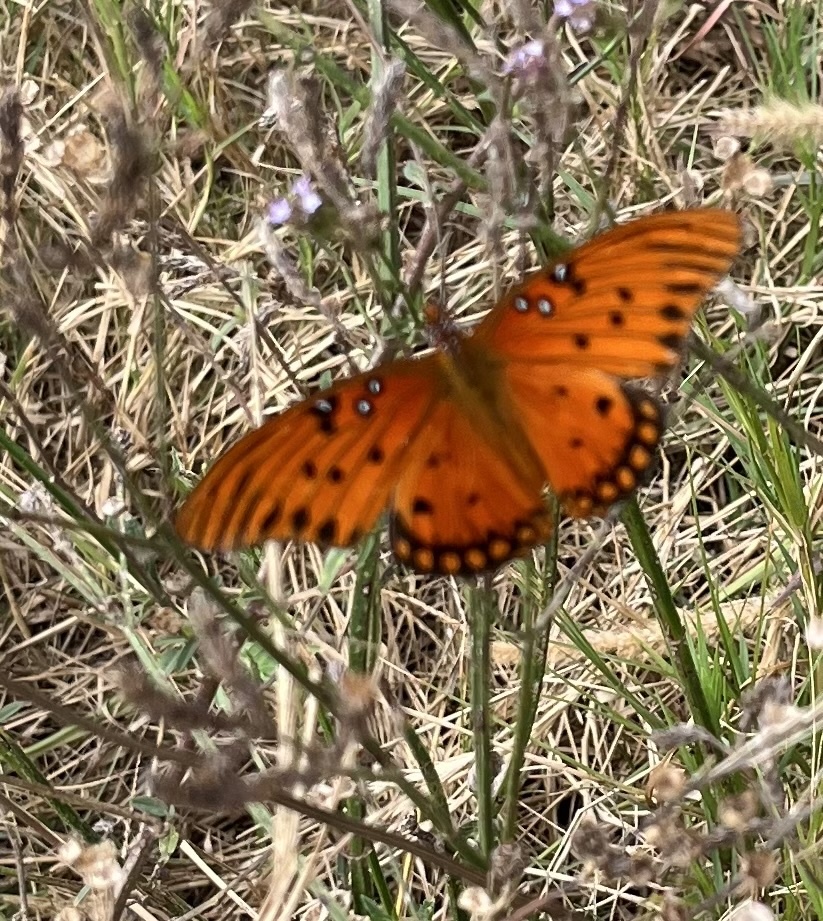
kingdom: Animalia
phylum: Arthropoda
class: Insecta
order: Lepidoptera
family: Nymphalidae
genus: Dione
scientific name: Dione vanillae
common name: Gulf fritillary
